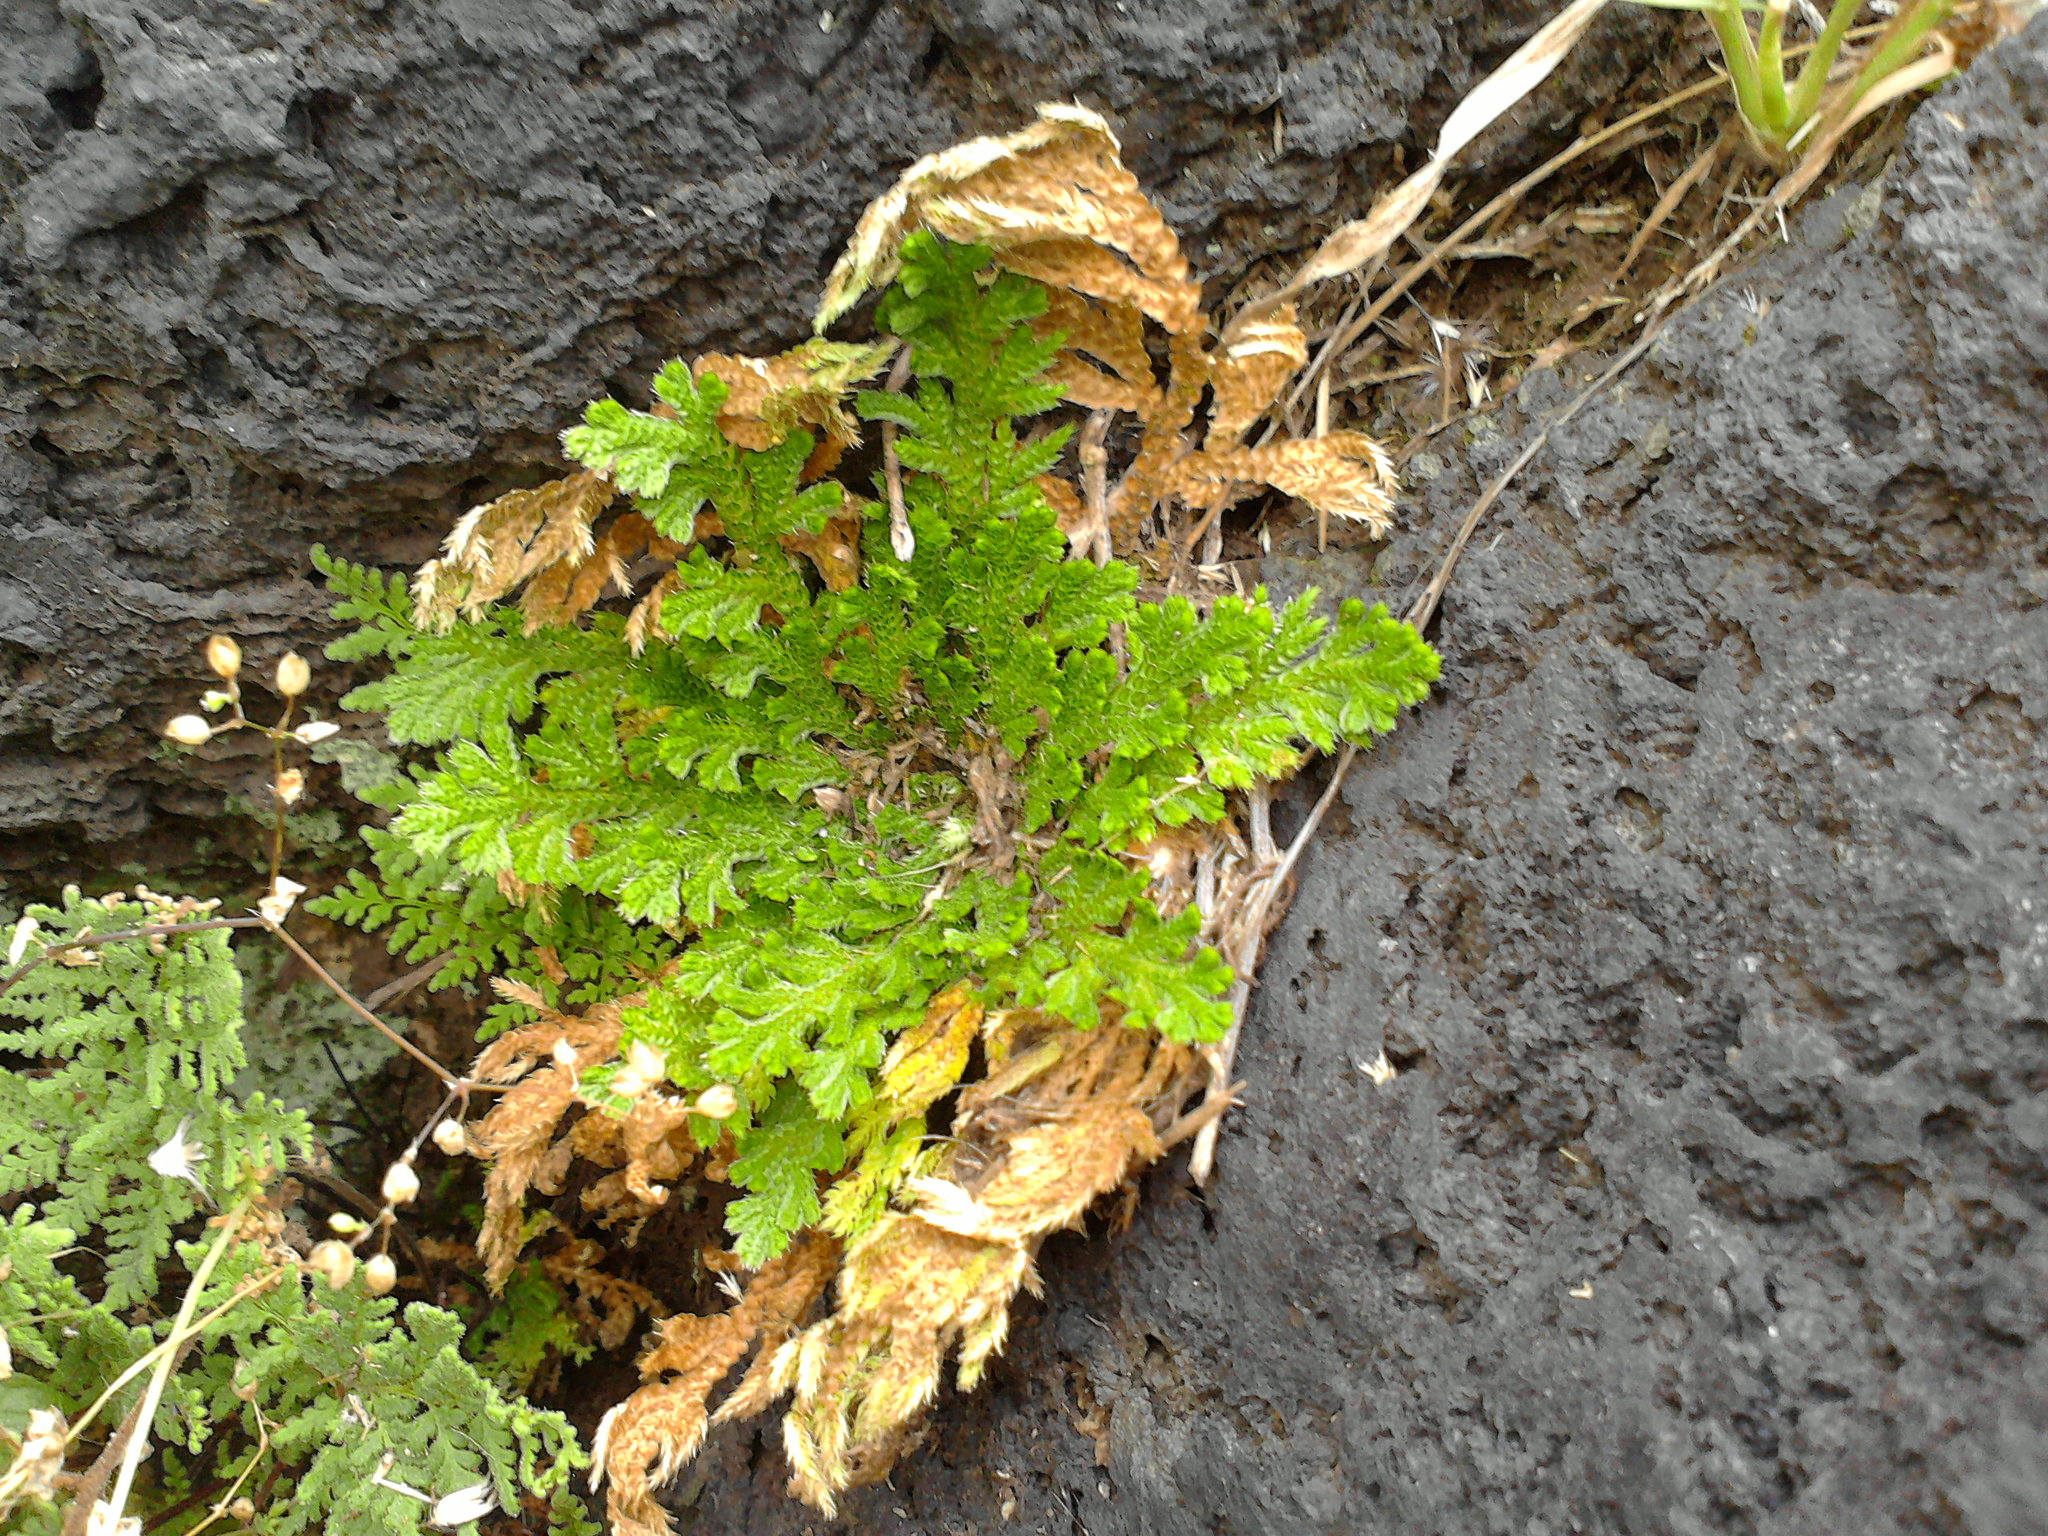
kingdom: Plantae
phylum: Tracheophyta
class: Lycopodiopsida
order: Selaginellales
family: Selaginellaceae
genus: Selaginella
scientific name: Selaginella lepidophylla
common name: Rose-of-jericho
